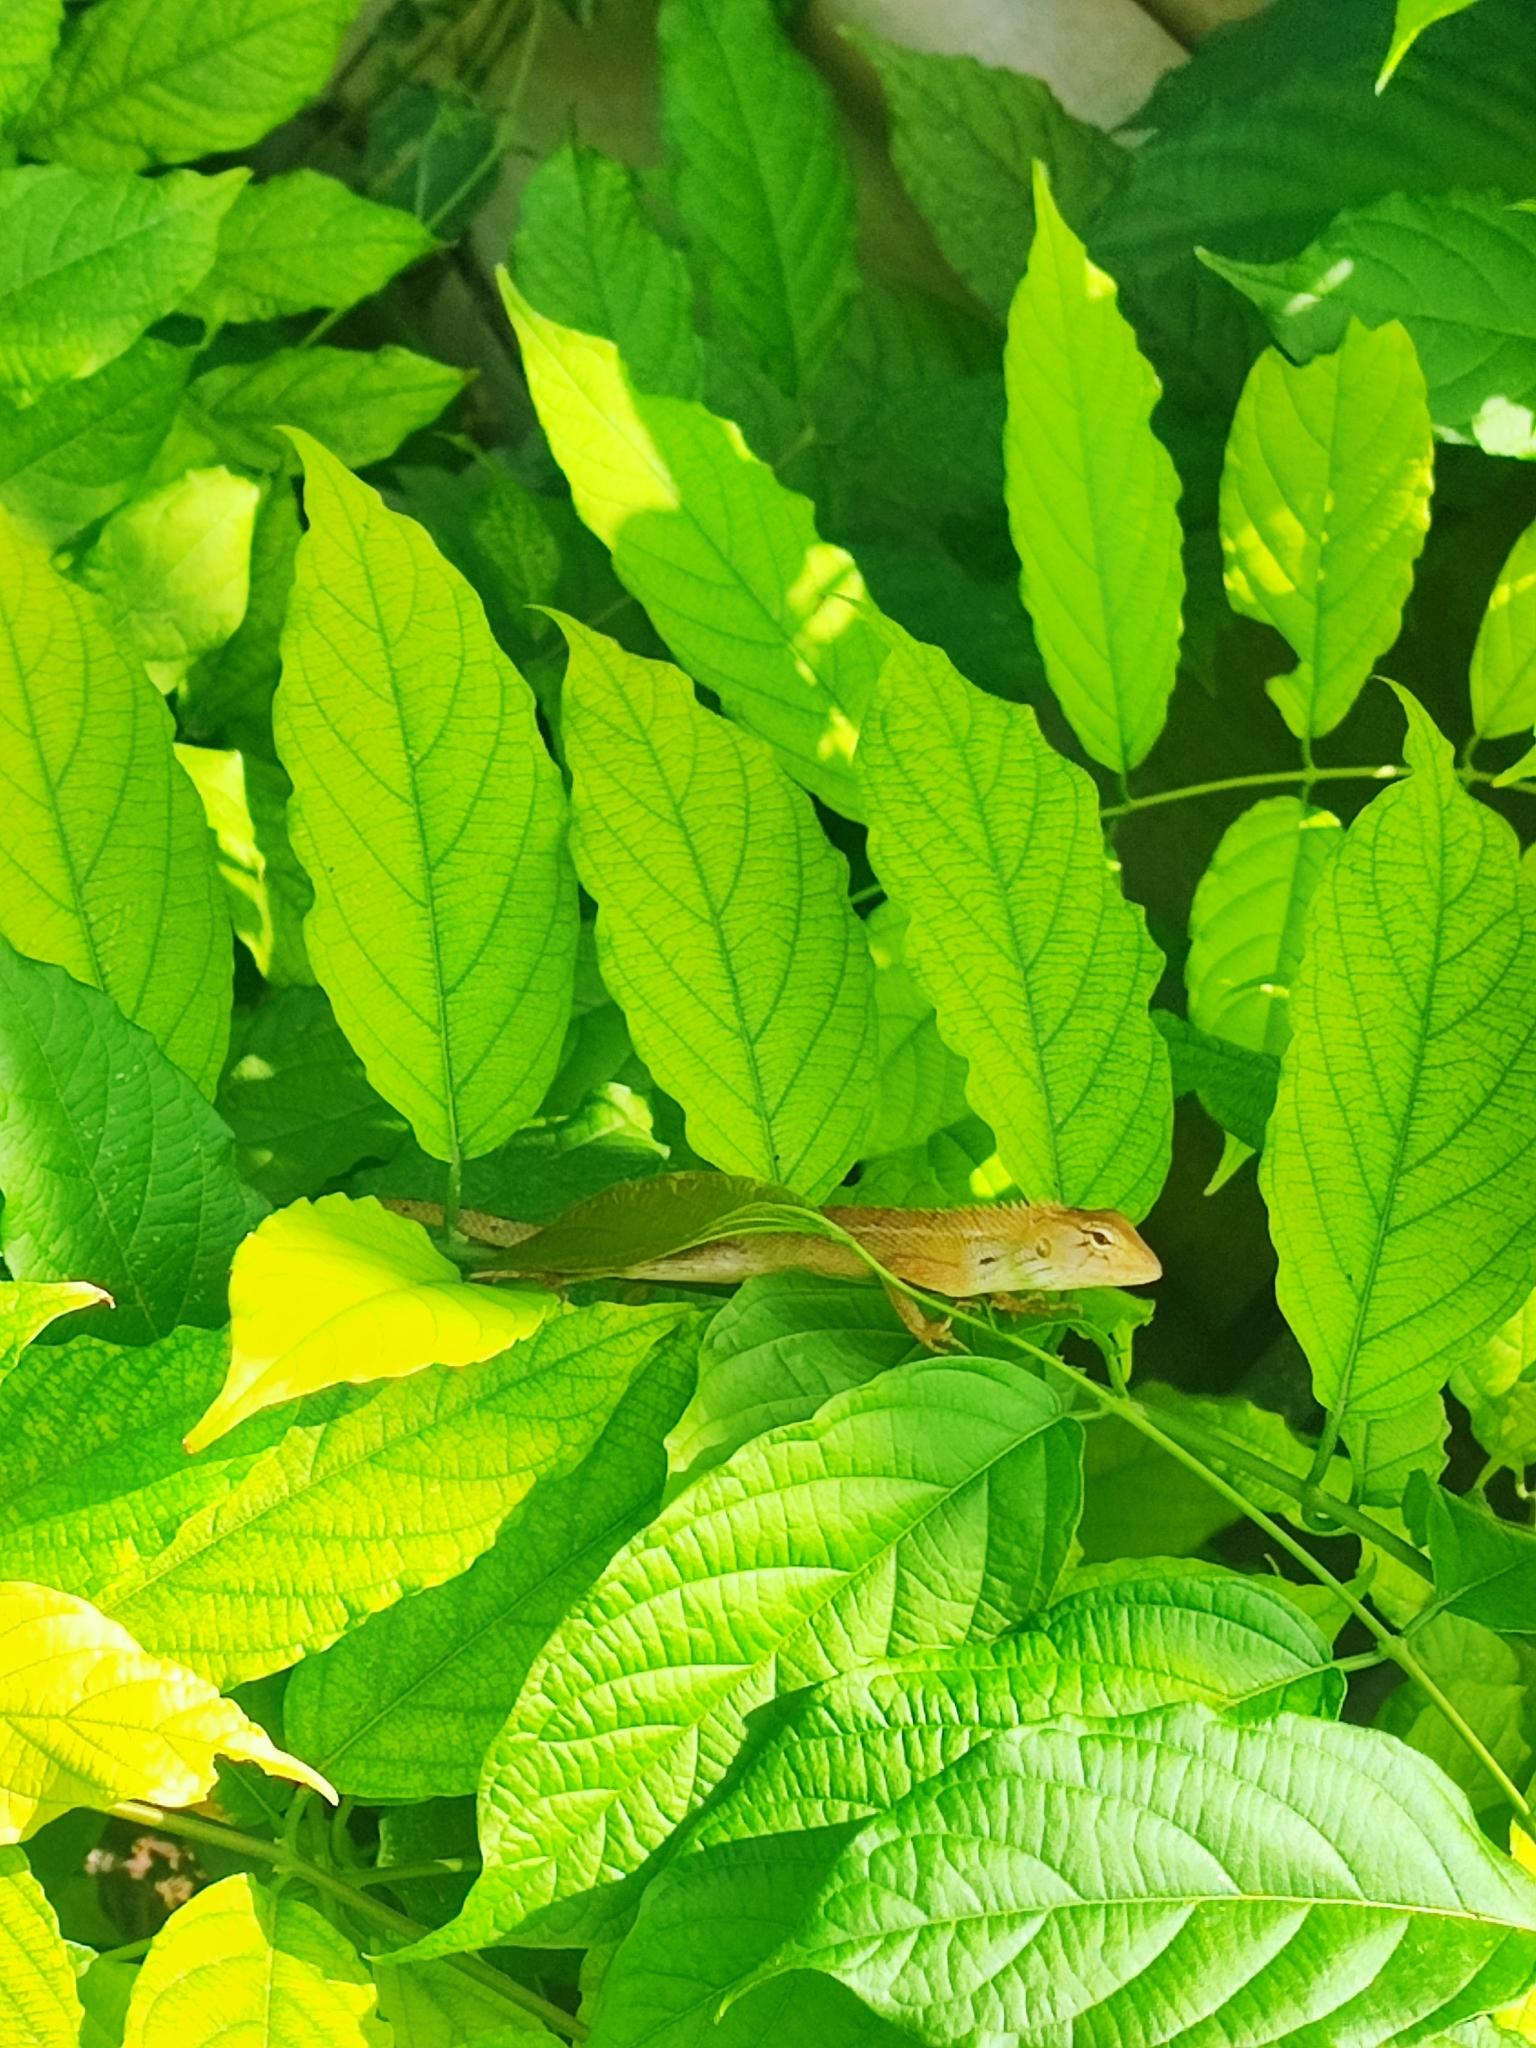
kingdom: Animalia
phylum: Chordata
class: Squamata
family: Agamidae
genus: Calotes
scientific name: Calotes versicolor
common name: Oriental garden lizard
